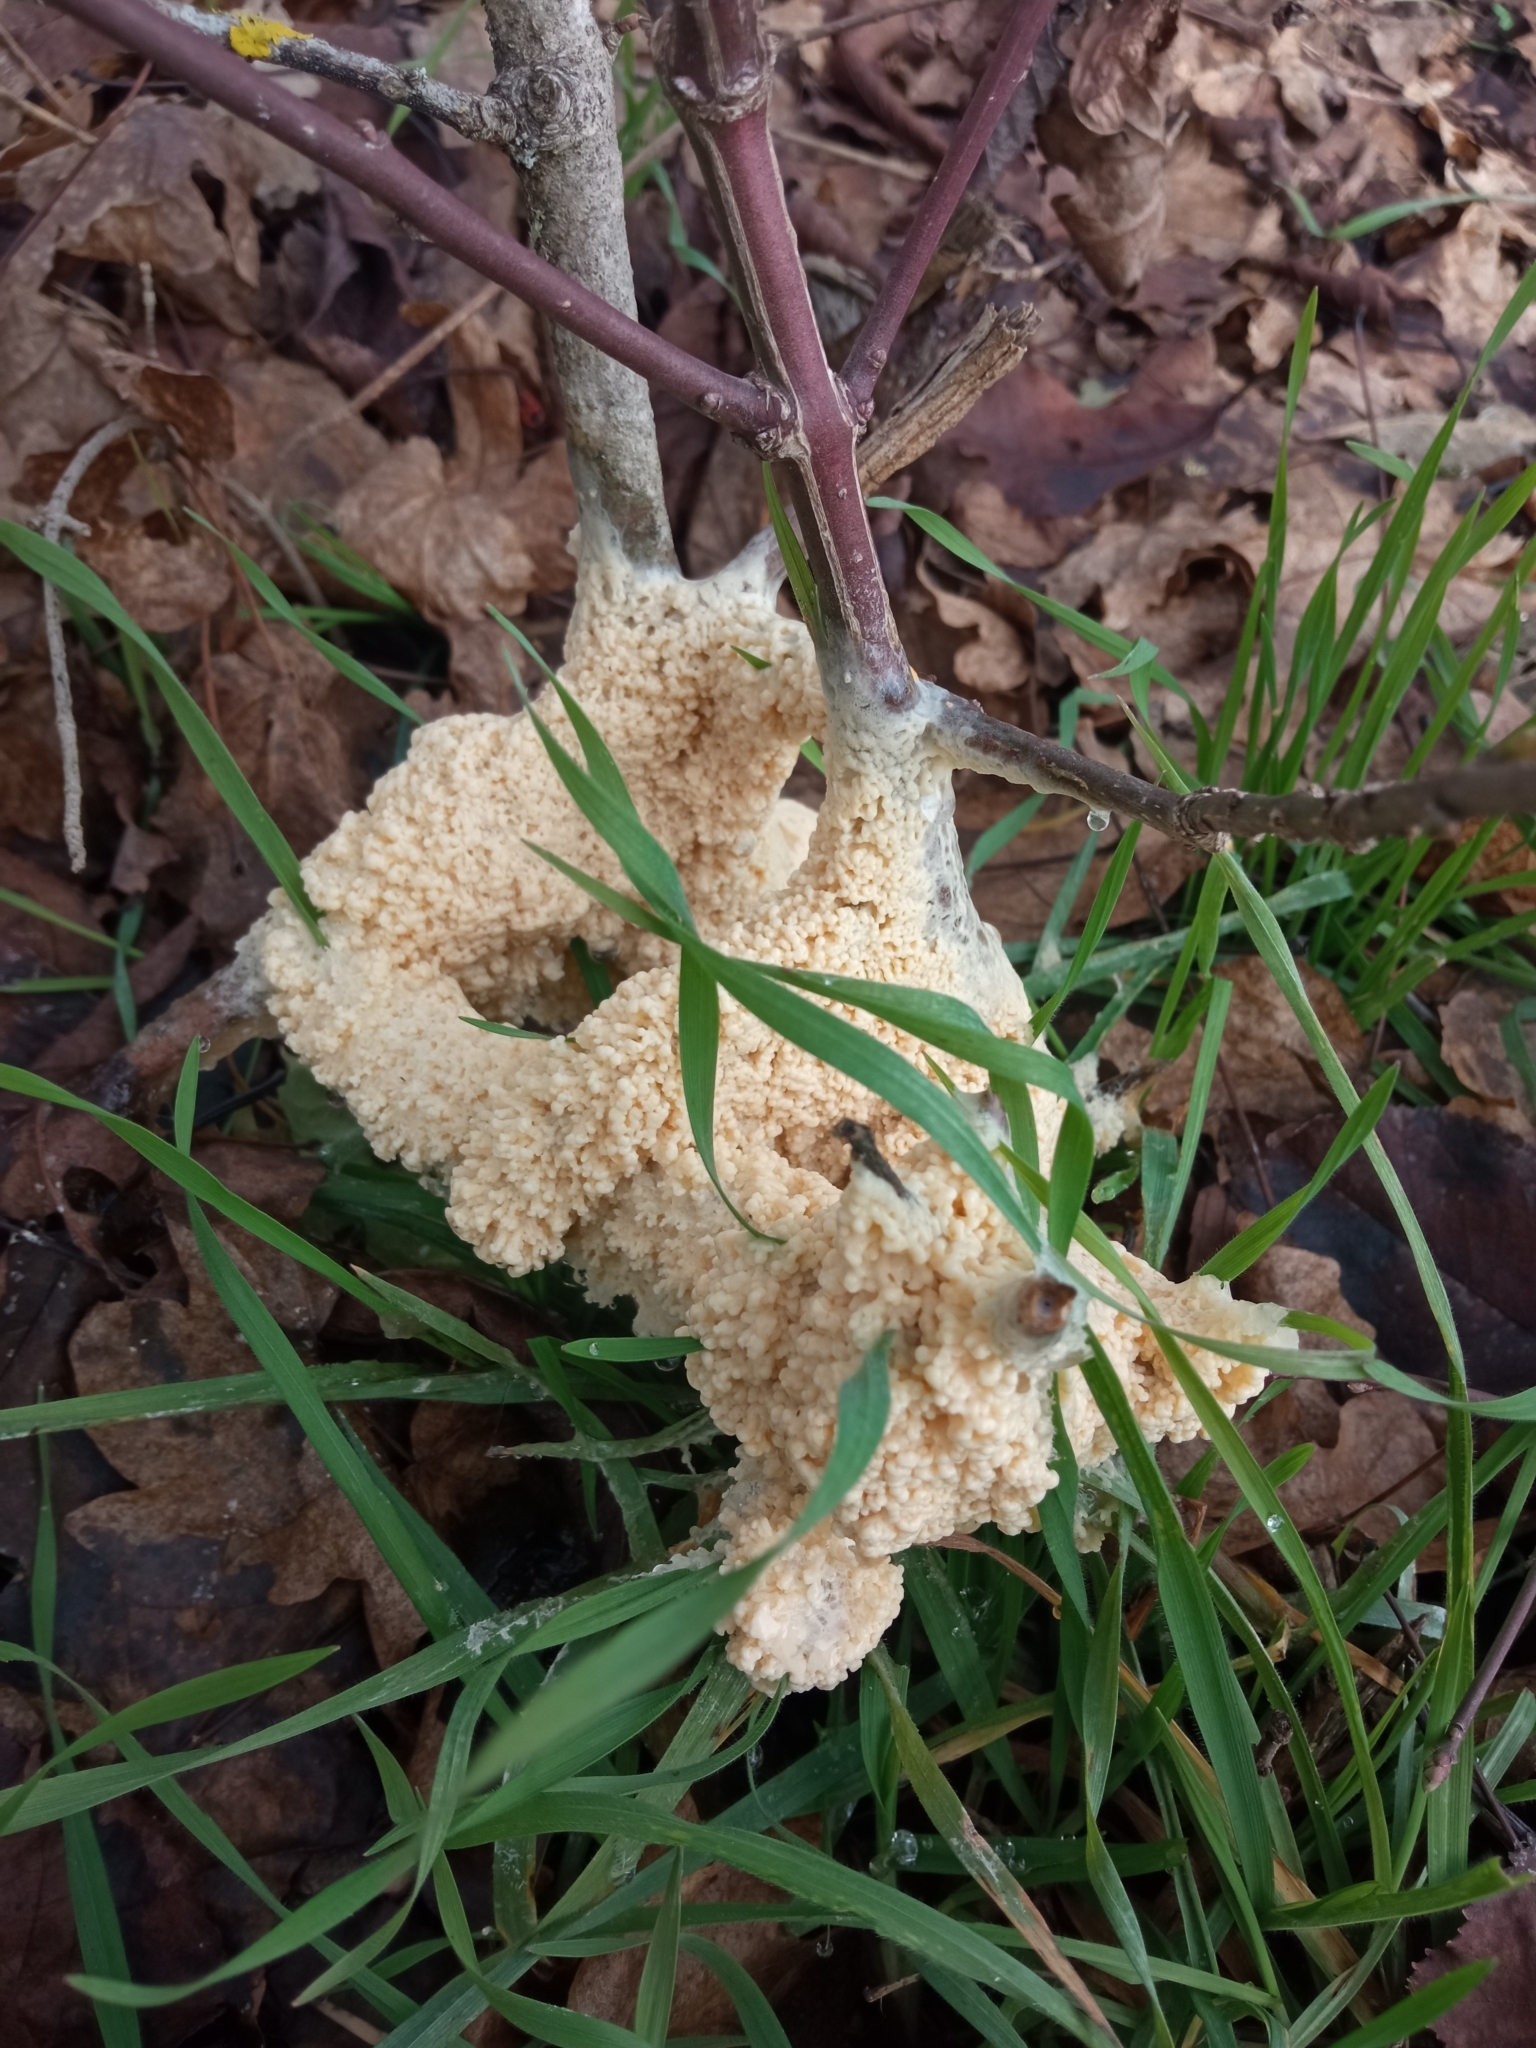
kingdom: Protozoa
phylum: Mycetozoa
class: Myxomycetes
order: Physarales
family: Physaraceae
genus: Didymium
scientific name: Didymium
